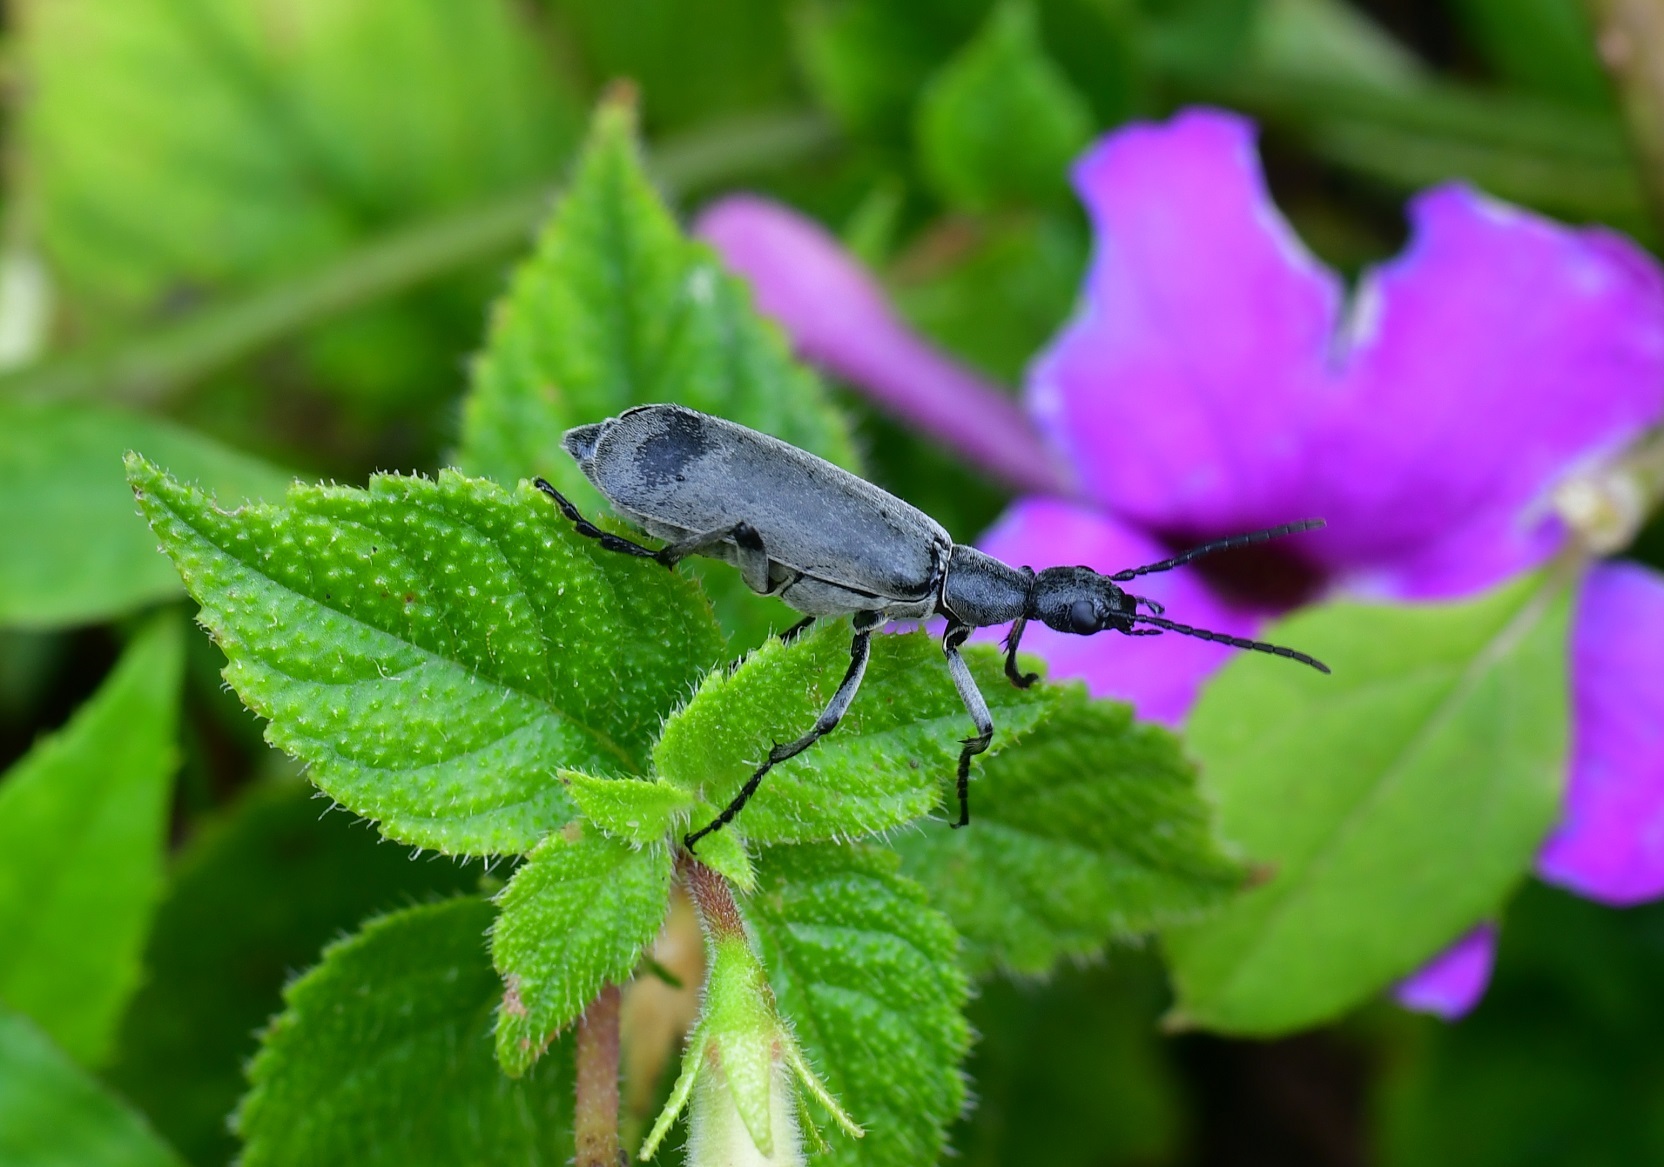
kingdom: Animalia
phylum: Arthropoda
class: Insecta
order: Coleoptera
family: Meloidae
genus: Epicauta
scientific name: Epicauta funesta
